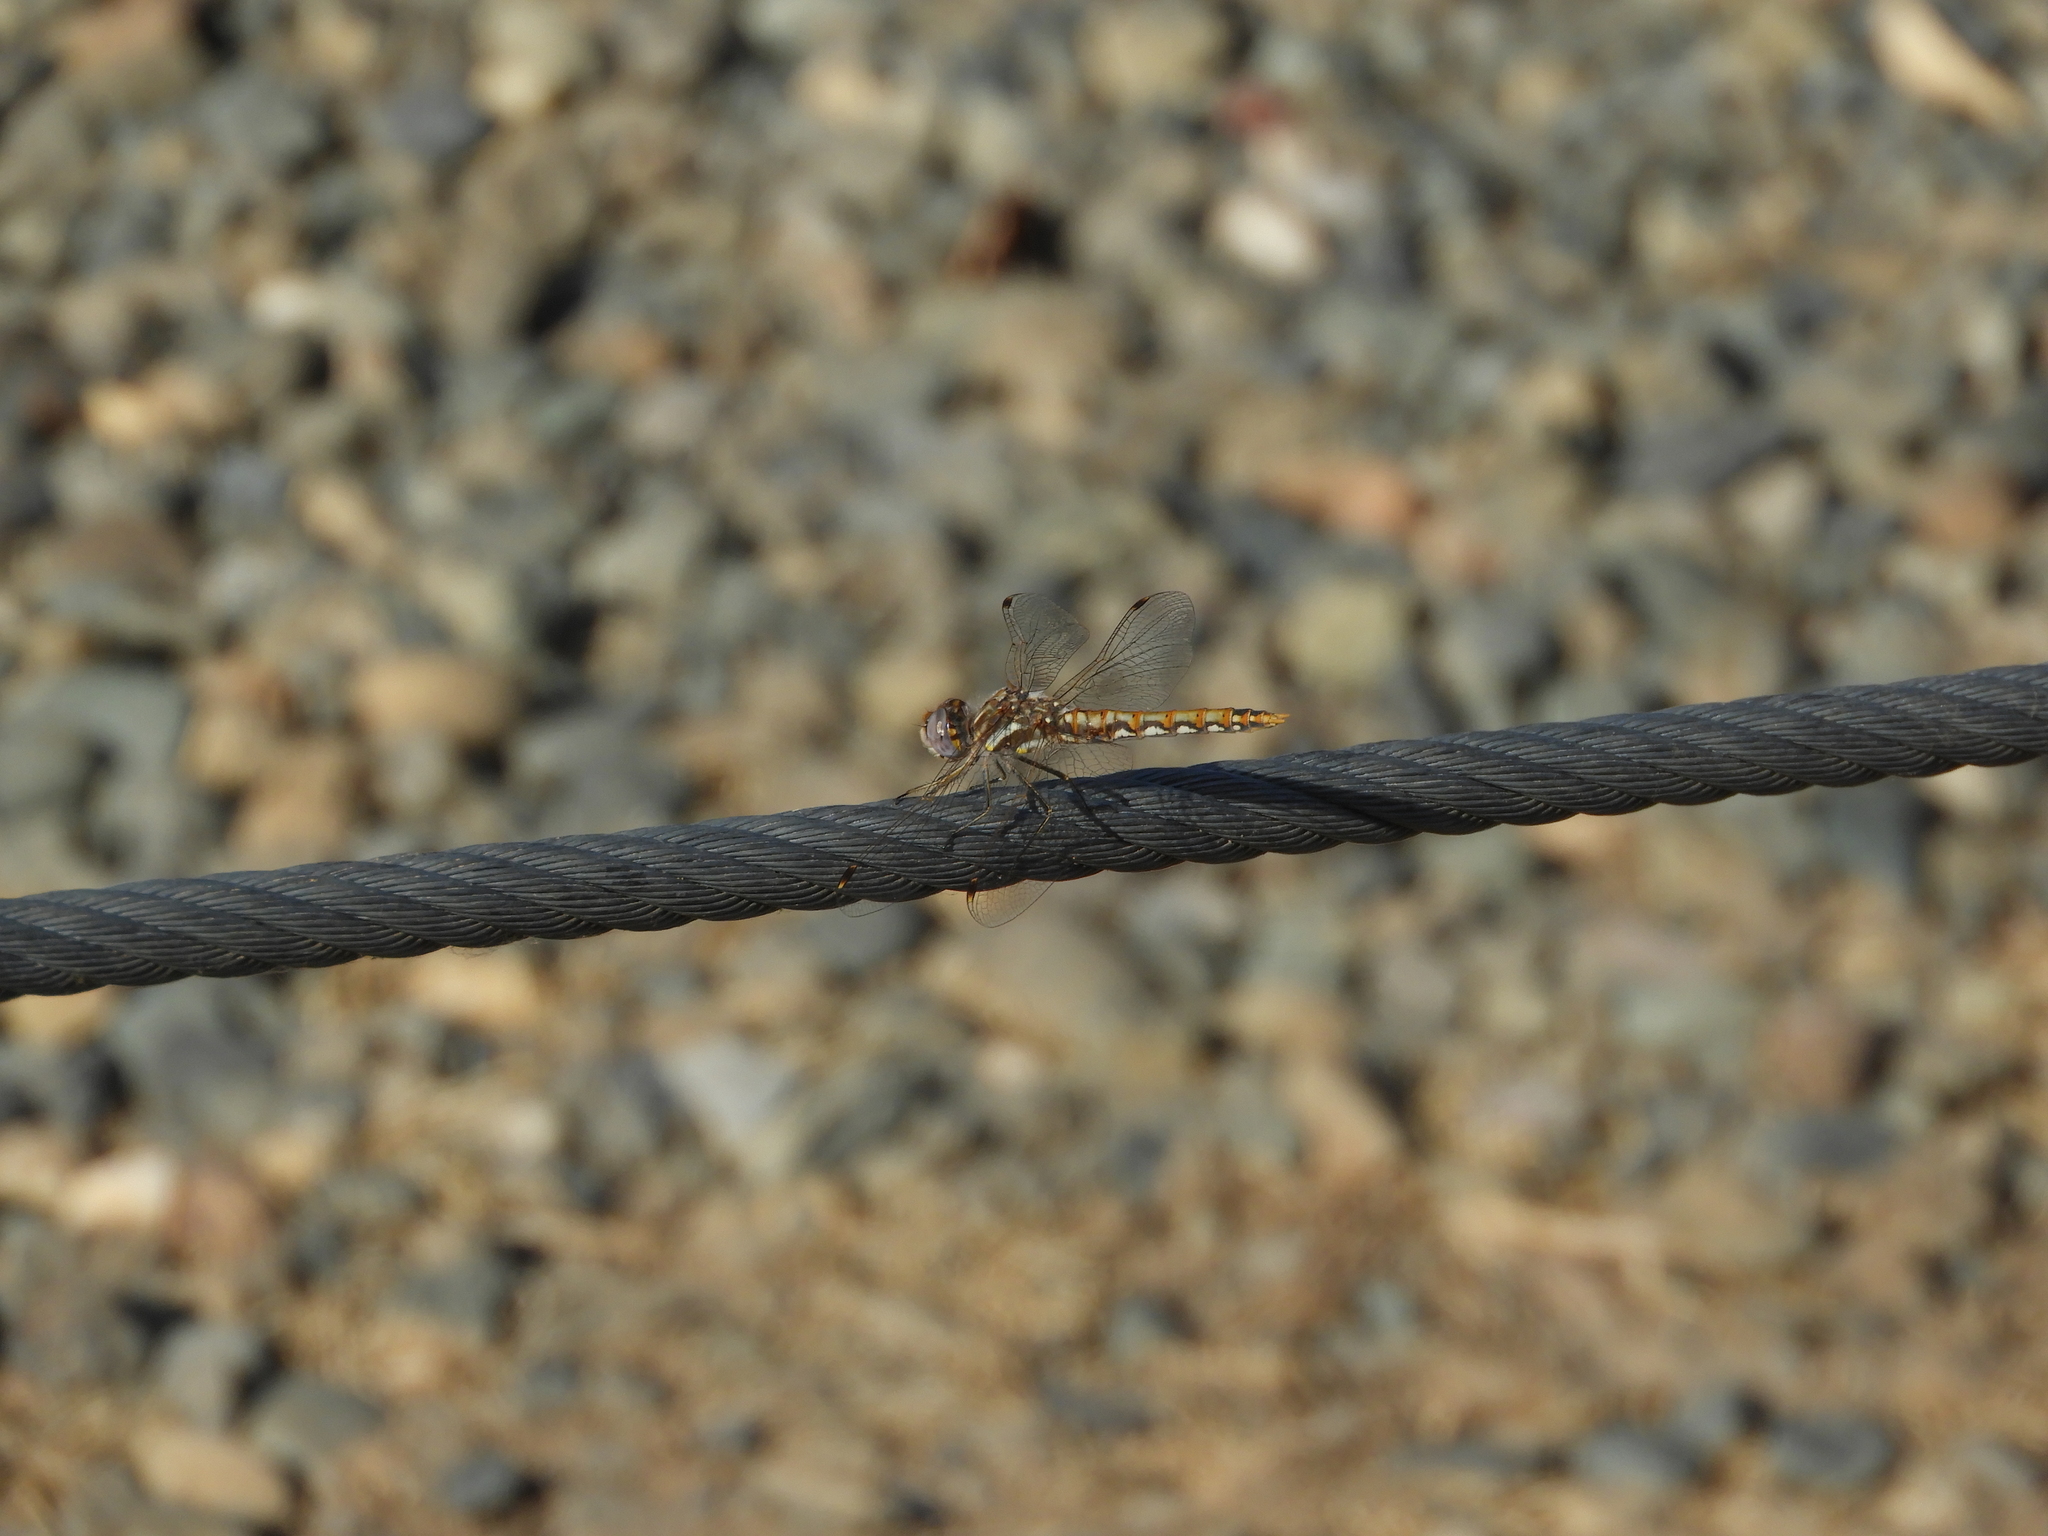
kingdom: Animalia
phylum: Arthropoda
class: Insecta
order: Odonata
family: Libellulidae
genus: Sympetrum
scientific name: Sympetrum corruptum
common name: Variegated meadowhawk
